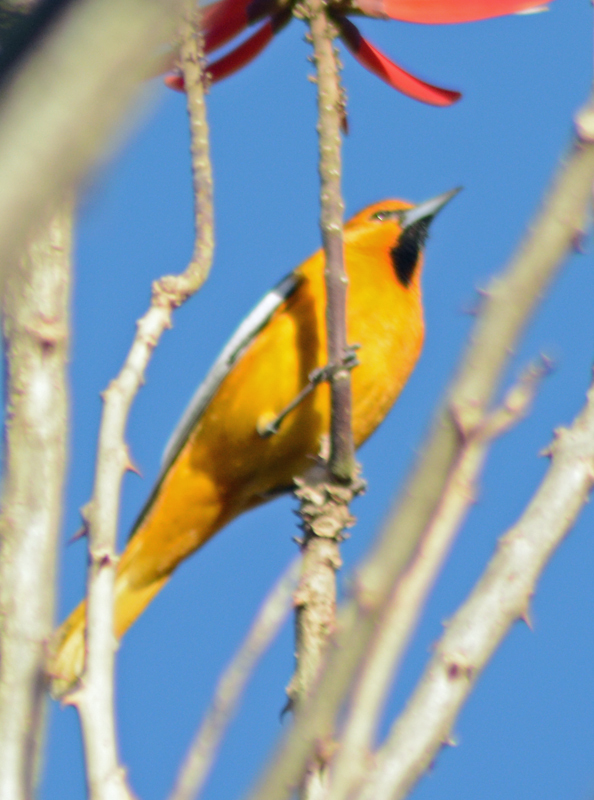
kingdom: Animalia
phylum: Chordata
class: Aves
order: Passeriformes
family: Icteridae
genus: Icterus
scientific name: Icterus bullockii
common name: Bullock's oriole
